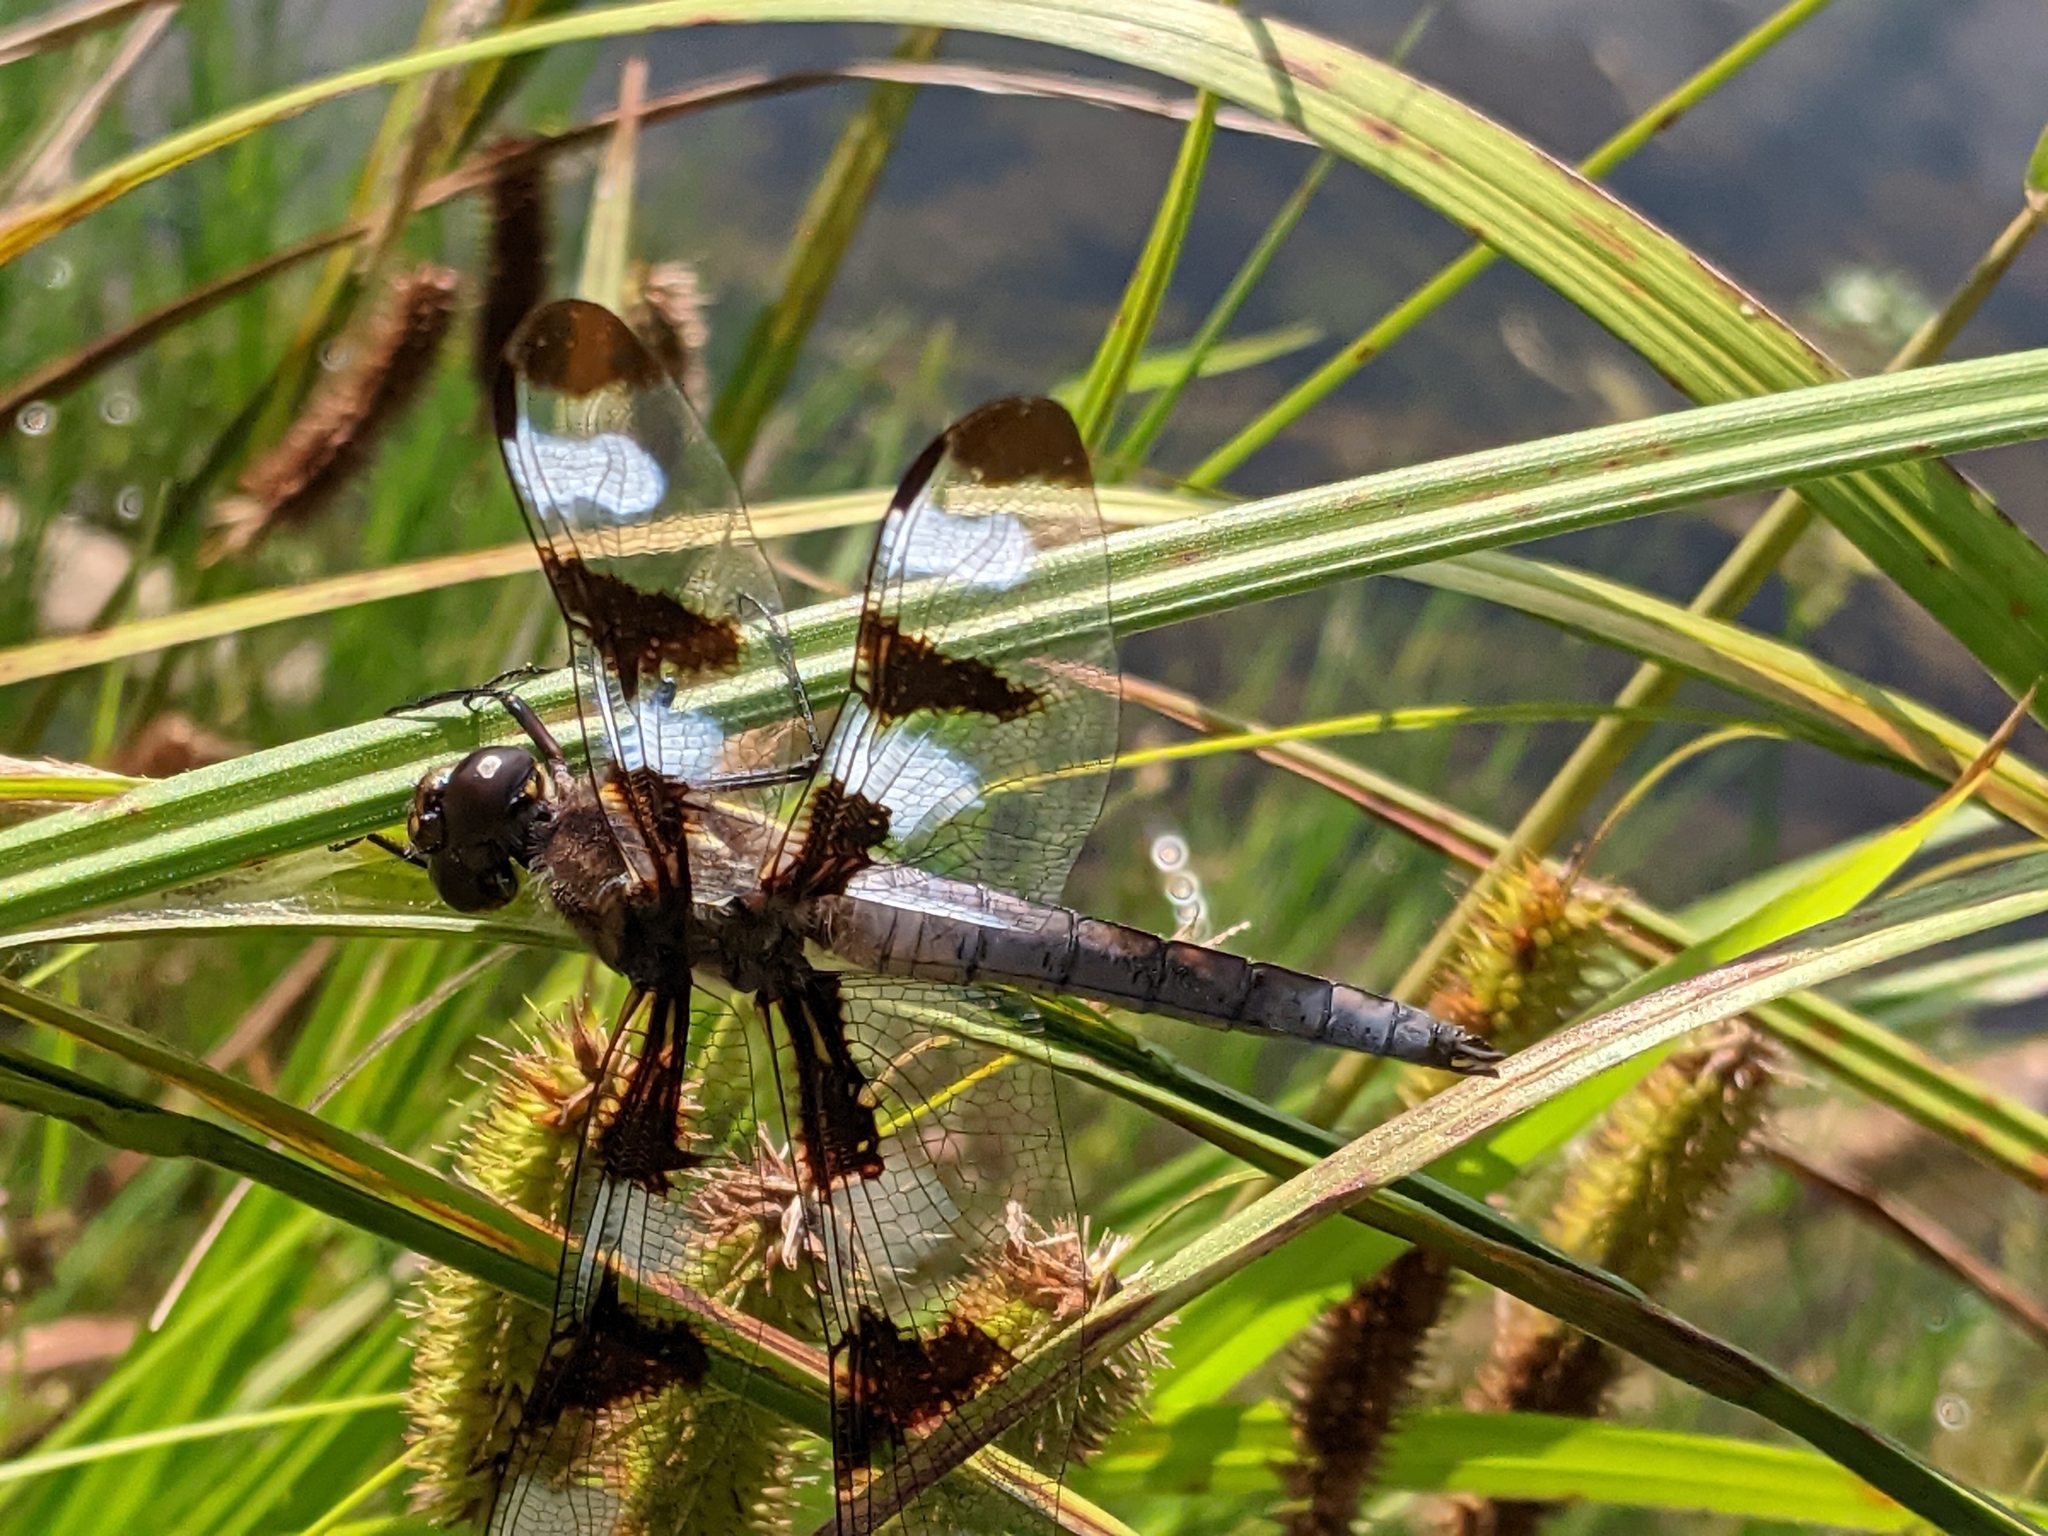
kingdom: Animalia
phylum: Arthropoda
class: Insecta
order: Odonata
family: Libellulidae
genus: Libellula
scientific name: Libellula pulchella
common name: Twelve-spotted skimmer
